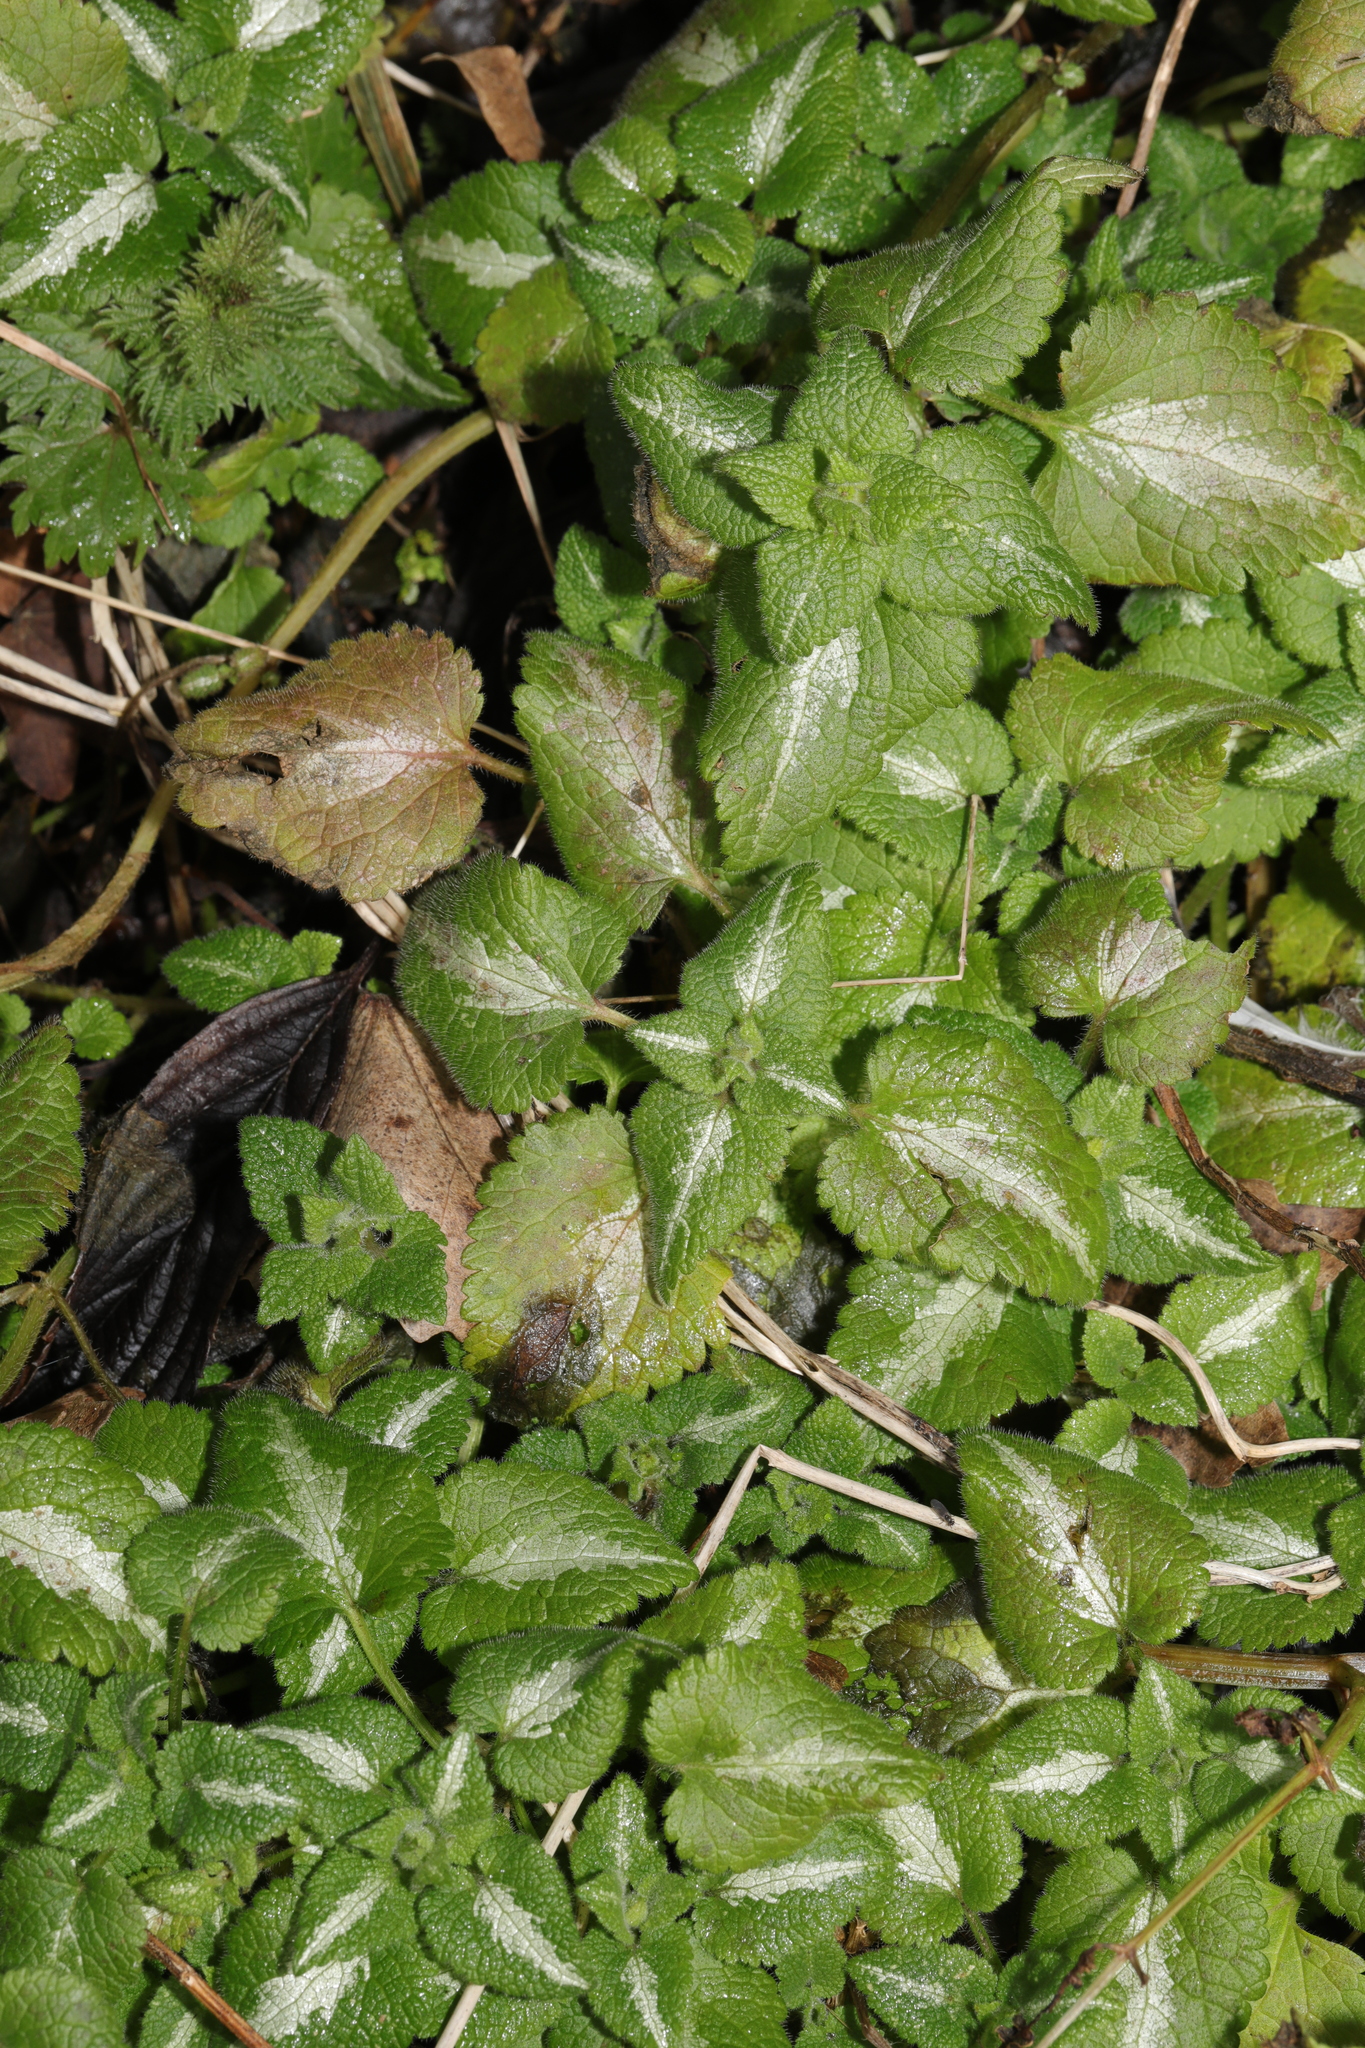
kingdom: Plantae
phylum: Tracheophyta
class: Magnoliopsida
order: Lamiales
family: Lamiaceae
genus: Lamium
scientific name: Lamium maculatum
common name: Spotted dead-nettle
